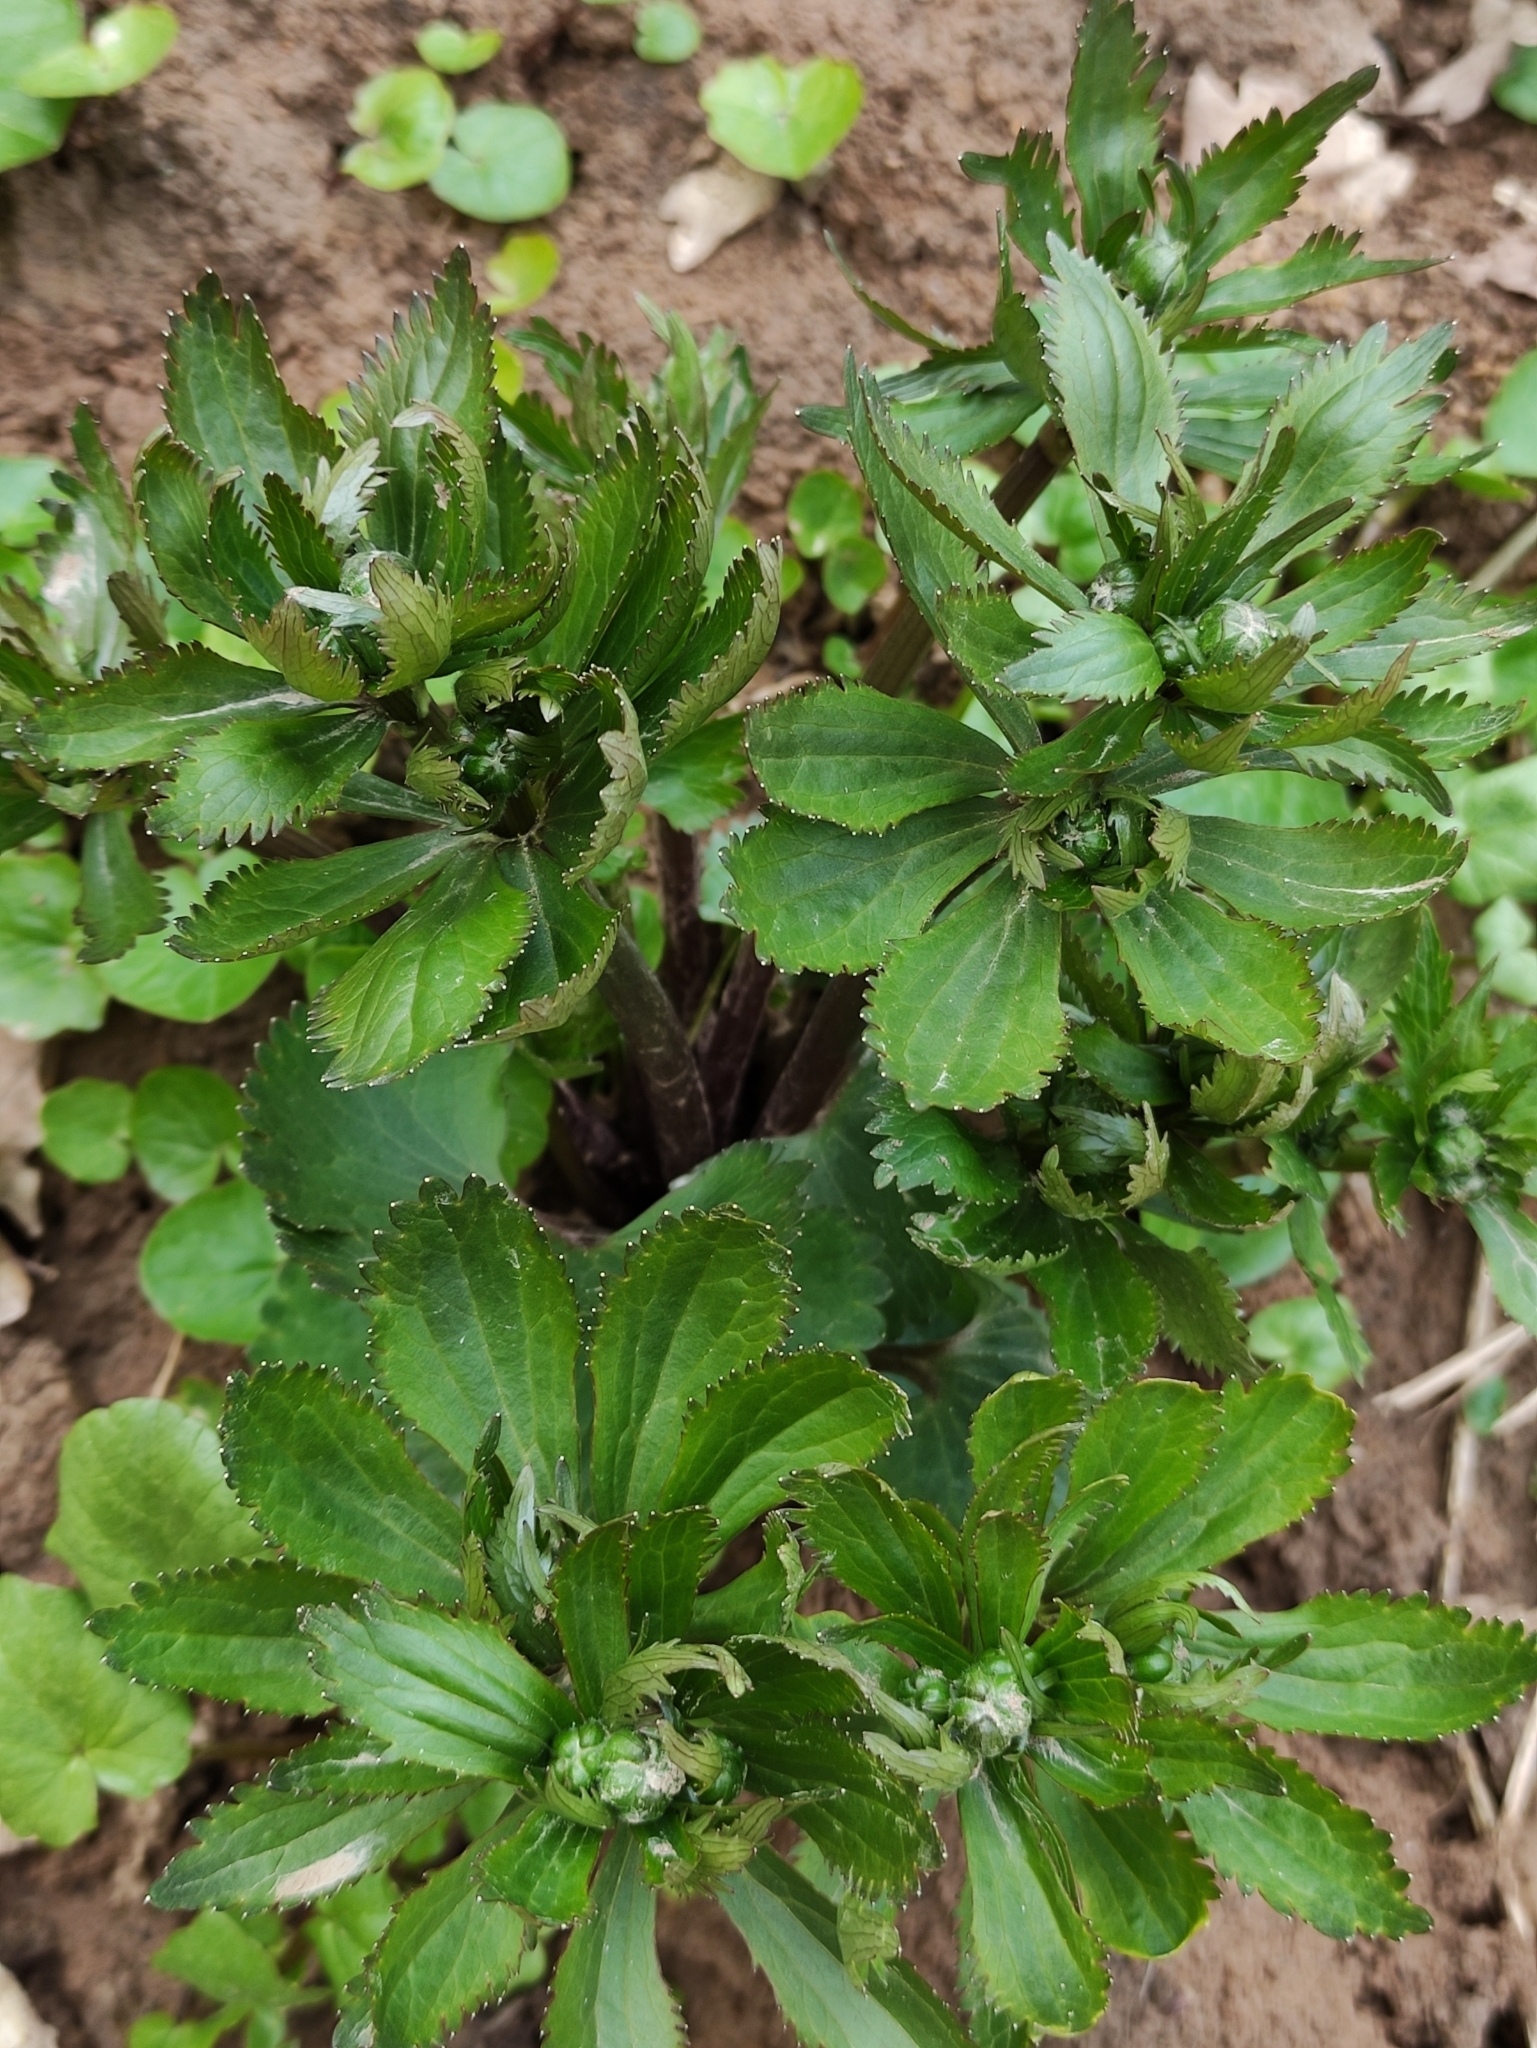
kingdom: Plantae
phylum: Tracheophyta
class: Magnoliopsida
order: Ranunculales
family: Ranunculaceae
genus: Ranunculus
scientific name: Ranunculus cassubicus
